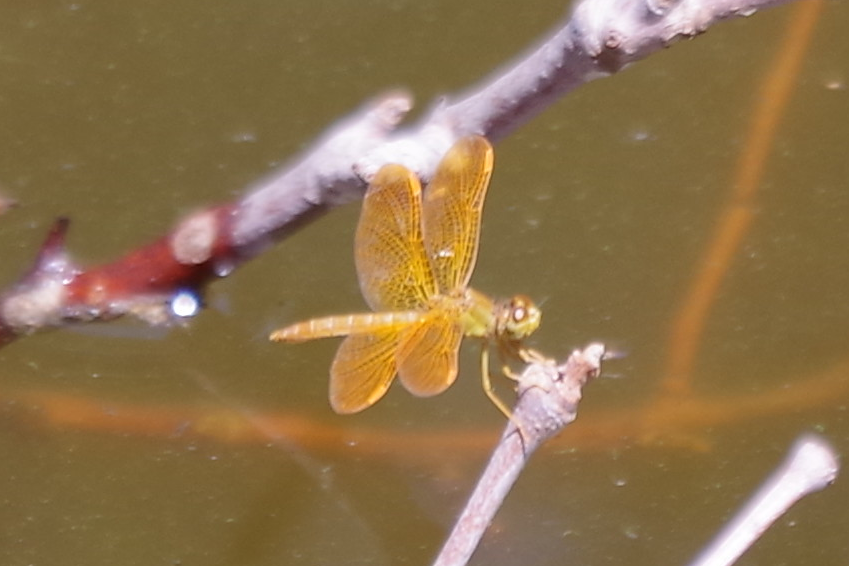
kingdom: Animalia
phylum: Arthropoda
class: Insecta
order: Odonata
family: Libellulidae
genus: Perithemis
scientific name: Perithemis intensa
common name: Mexican amberwing
